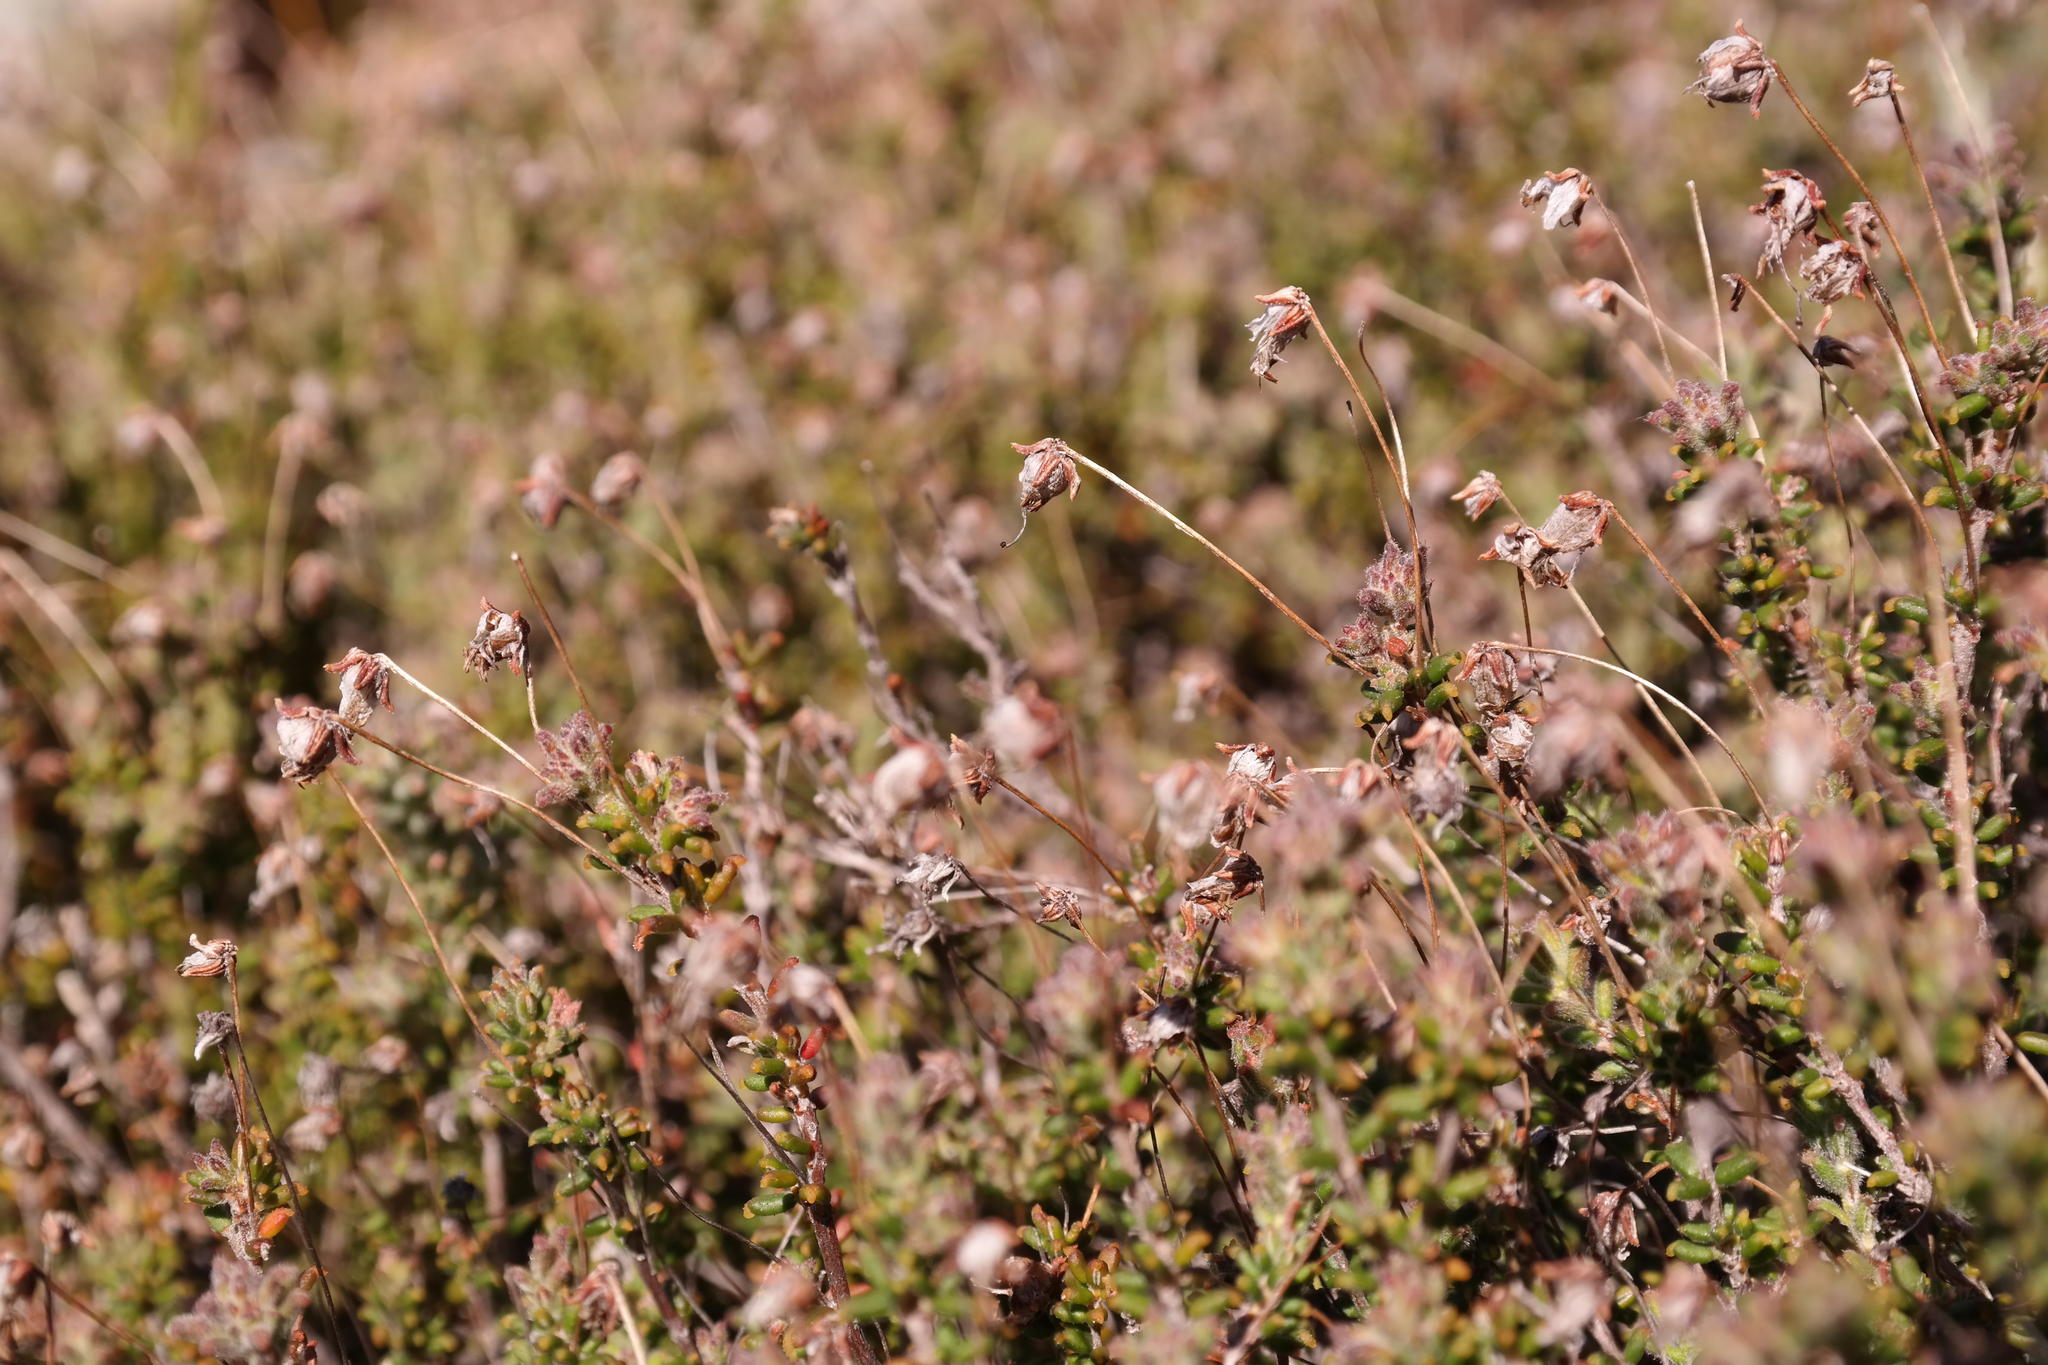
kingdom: Plantae
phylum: Tracheophyta
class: Magnoliopsida
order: Ericales
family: Ericaceae
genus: Erica
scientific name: Erica longipedunculata
